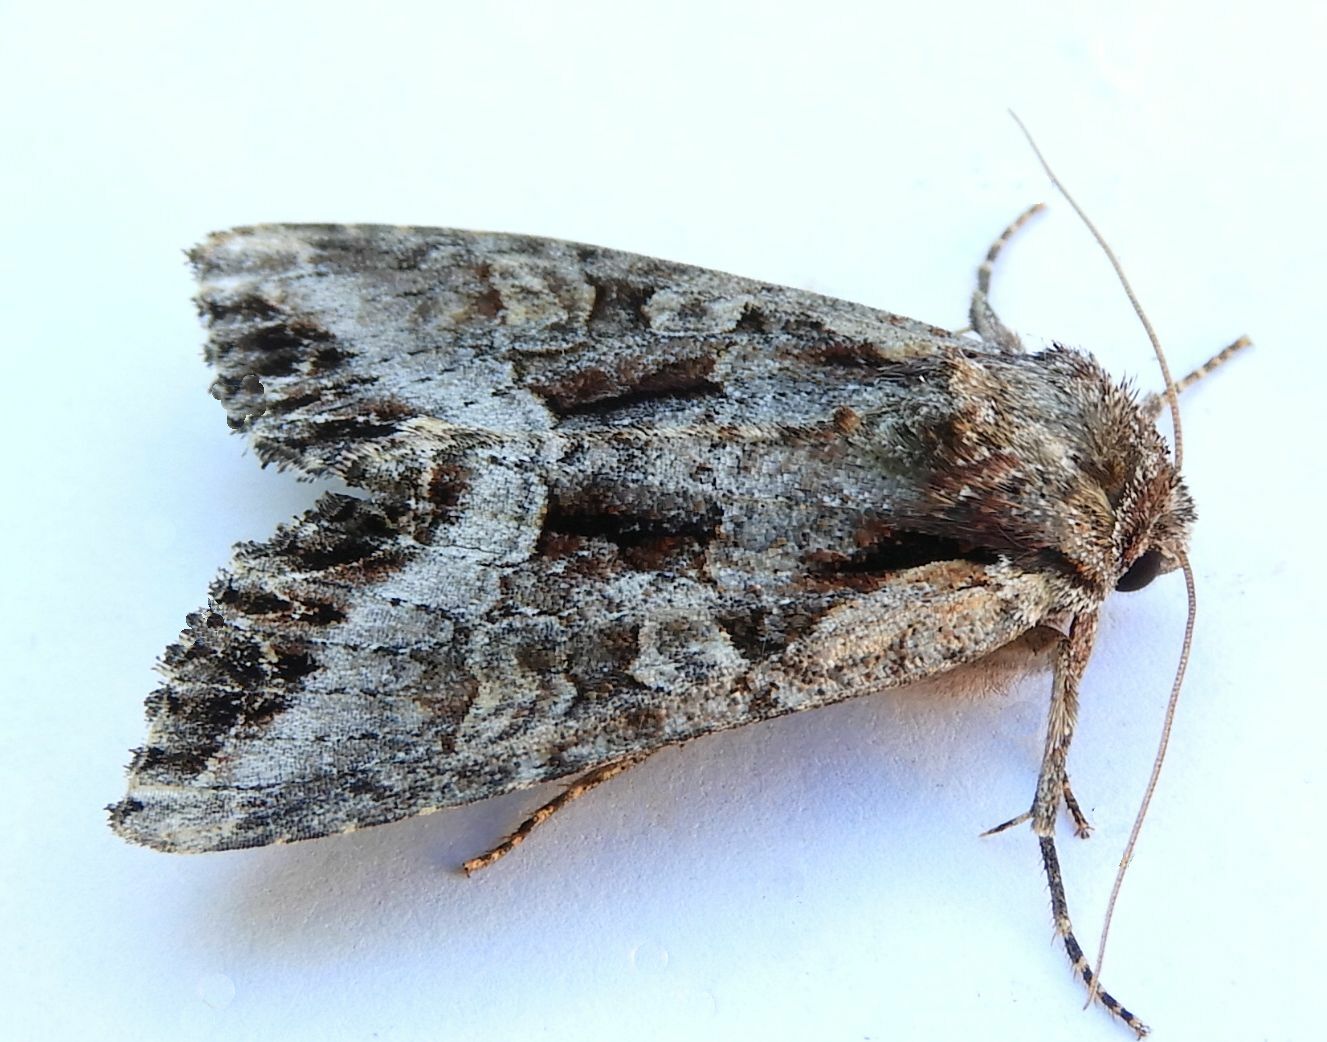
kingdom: Animalia
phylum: Arthropoda
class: Insecta
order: Lepidoptera
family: Noctuidae
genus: Lacanobia
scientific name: Lacanobia grandis
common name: Grand arches moth
